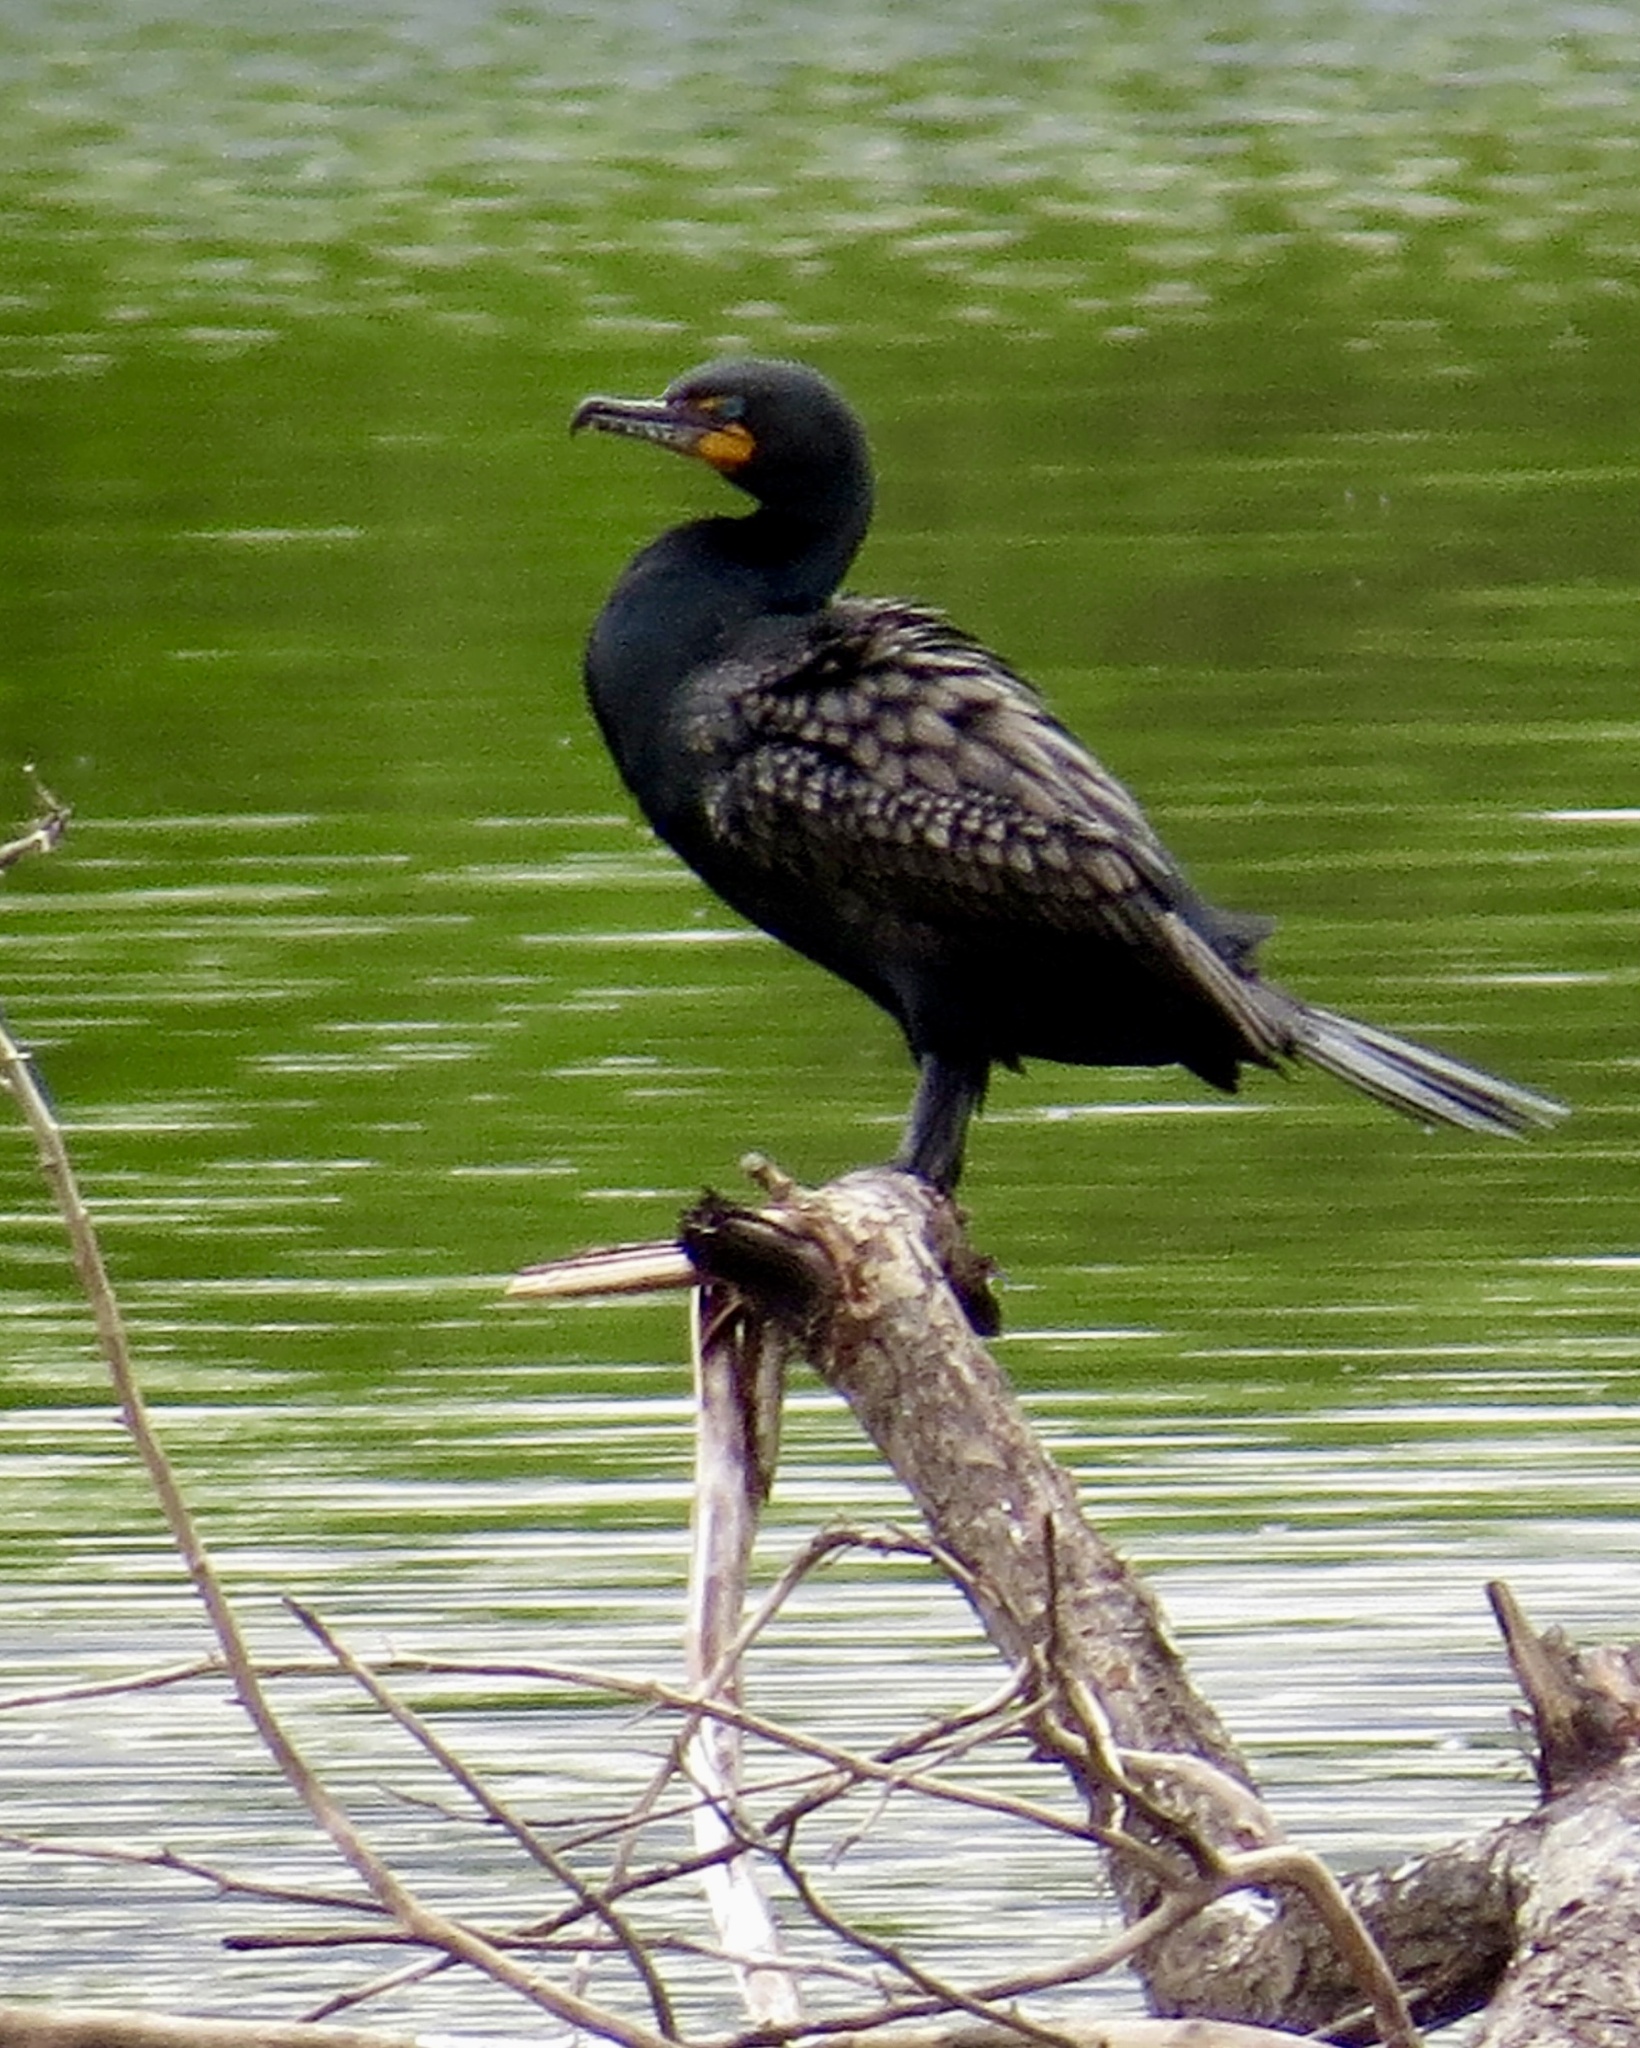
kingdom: Animalia
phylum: Chordata
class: Aves
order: Suliformes
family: Phalacrocoracidae
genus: Phalacrocorax
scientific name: Phalacrocorax auritus
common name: Double-crested cormorant
